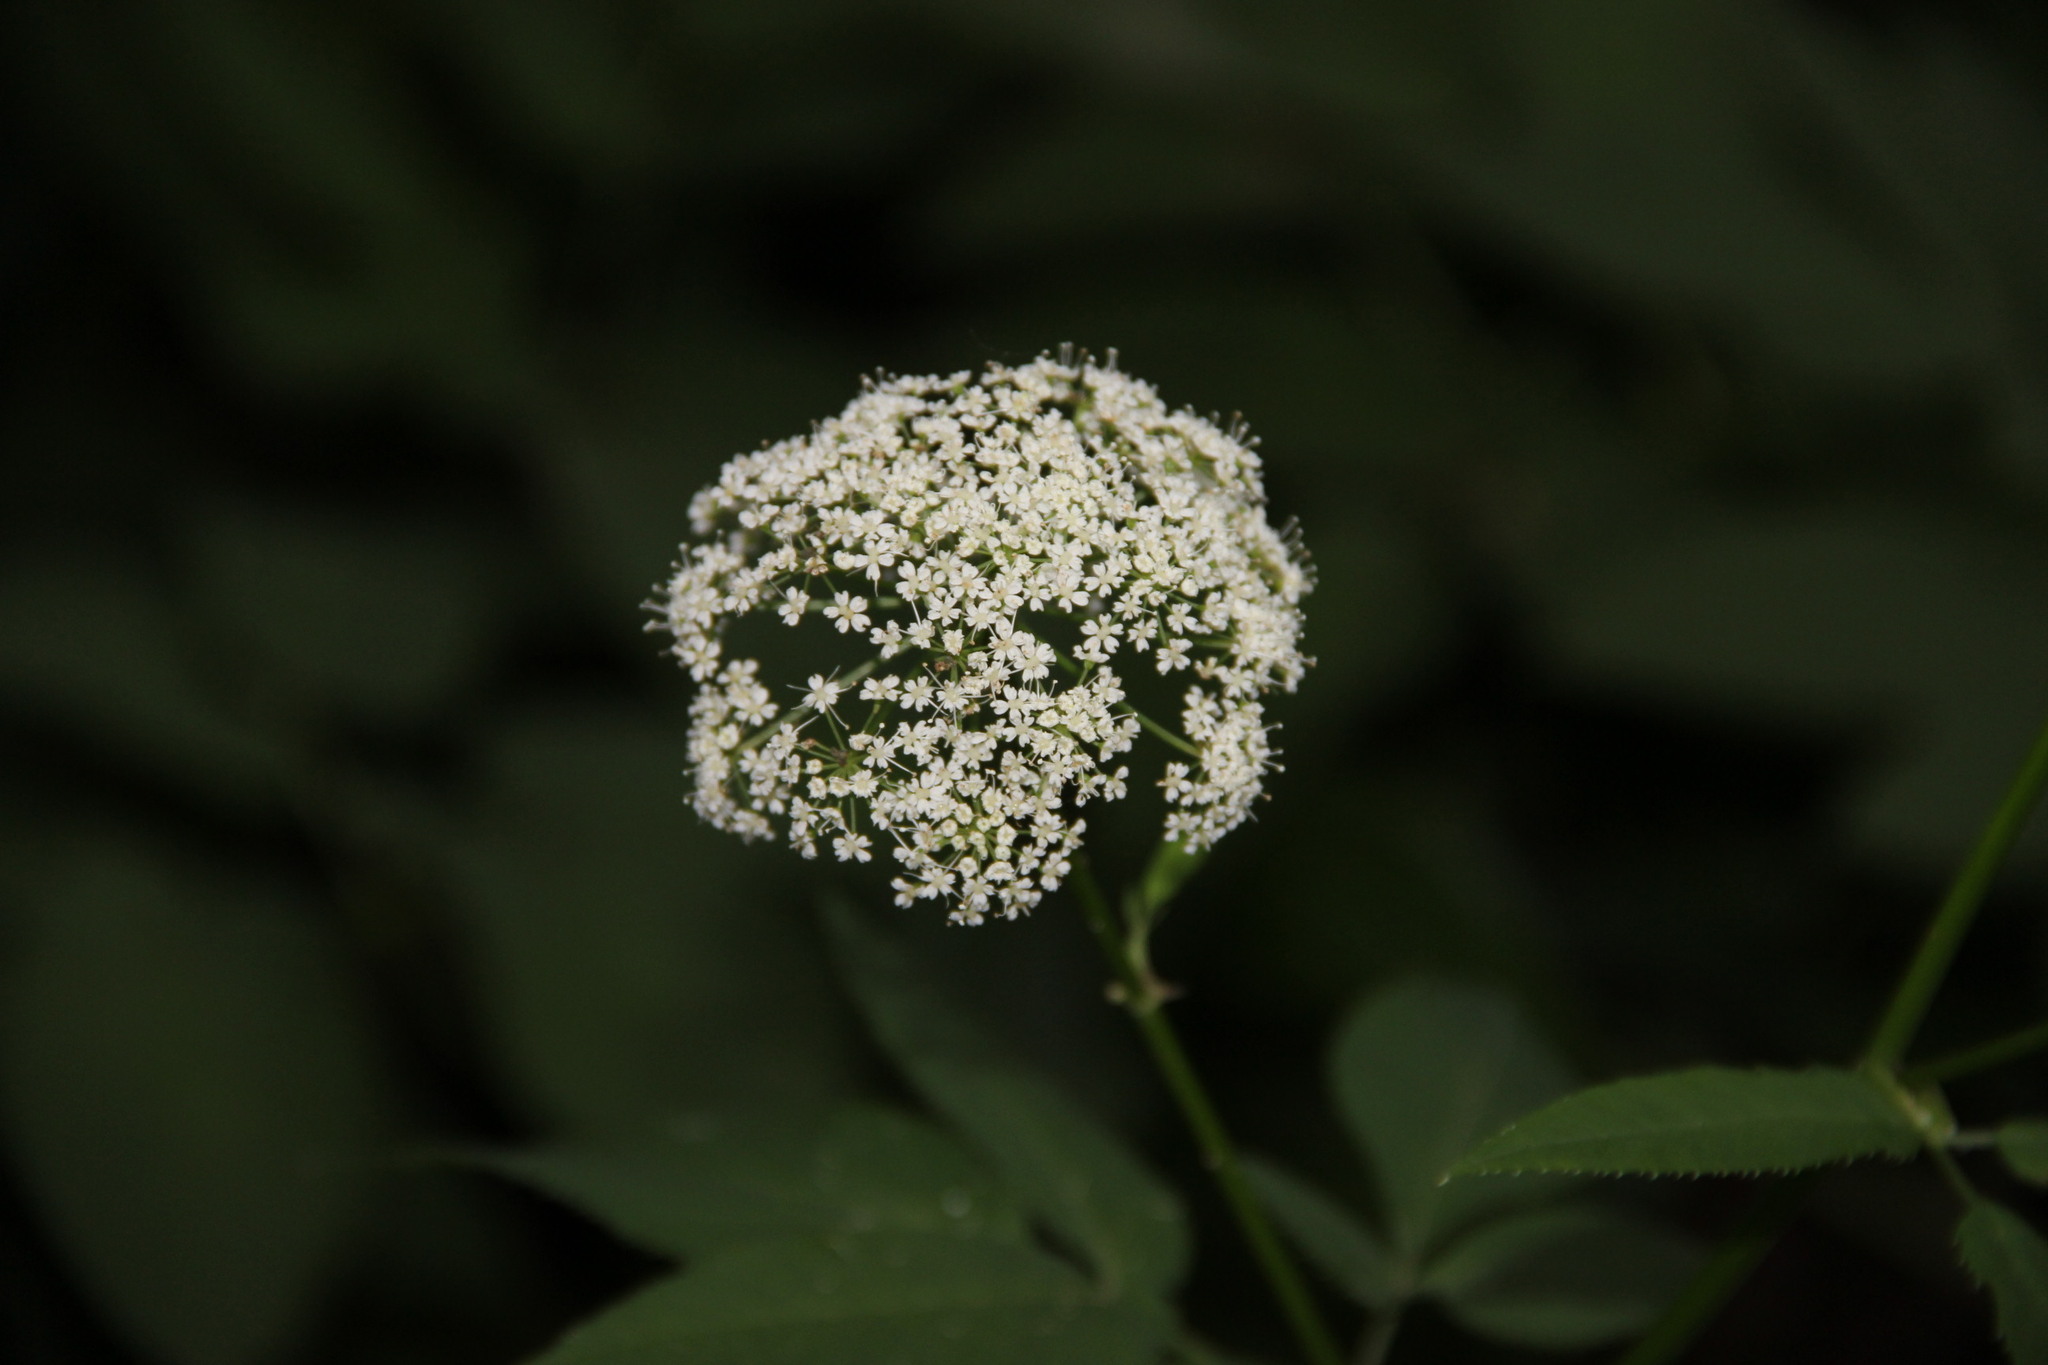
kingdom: Plantae
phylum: Tracheophyta
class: Magnoliopsida
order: Apiales
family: Apiaceae
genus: Aegopodium
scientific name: Aegopodium podagraria
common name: Ground-elder
